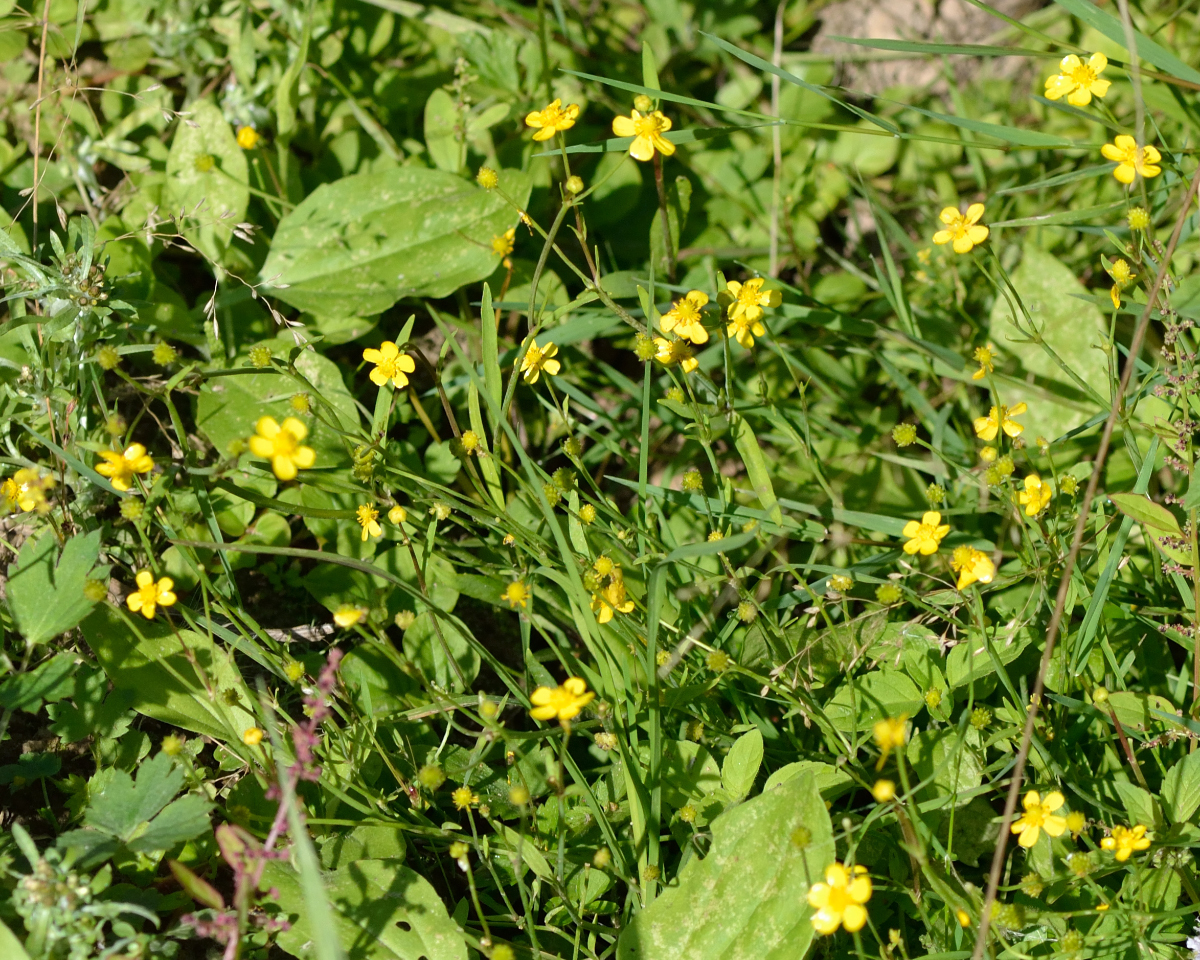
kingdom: Plantae
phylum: Tracheophyta
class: Magnoliopsida
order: Ranunculales
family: Ranunculaceae
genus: Ranunculus
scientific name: Ranunculus flammula
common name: Lesser spearwort
